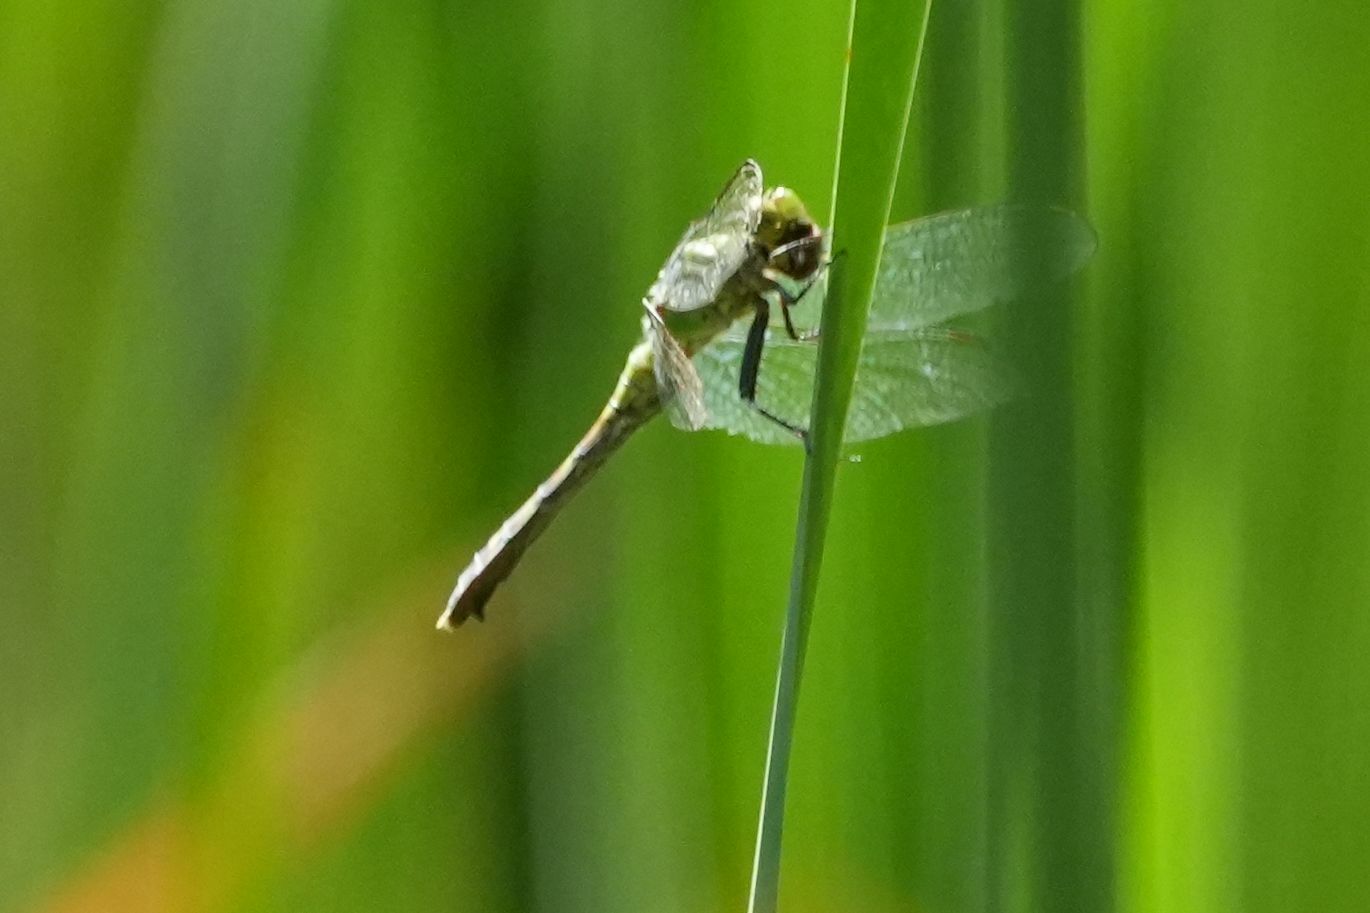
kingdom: Animalia
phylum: Arthropoda
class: Insecta
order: Odonata
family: Libellulidae
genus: Erythemis
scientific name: Erythemis simplicicollis
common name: Eastern pondhawk
